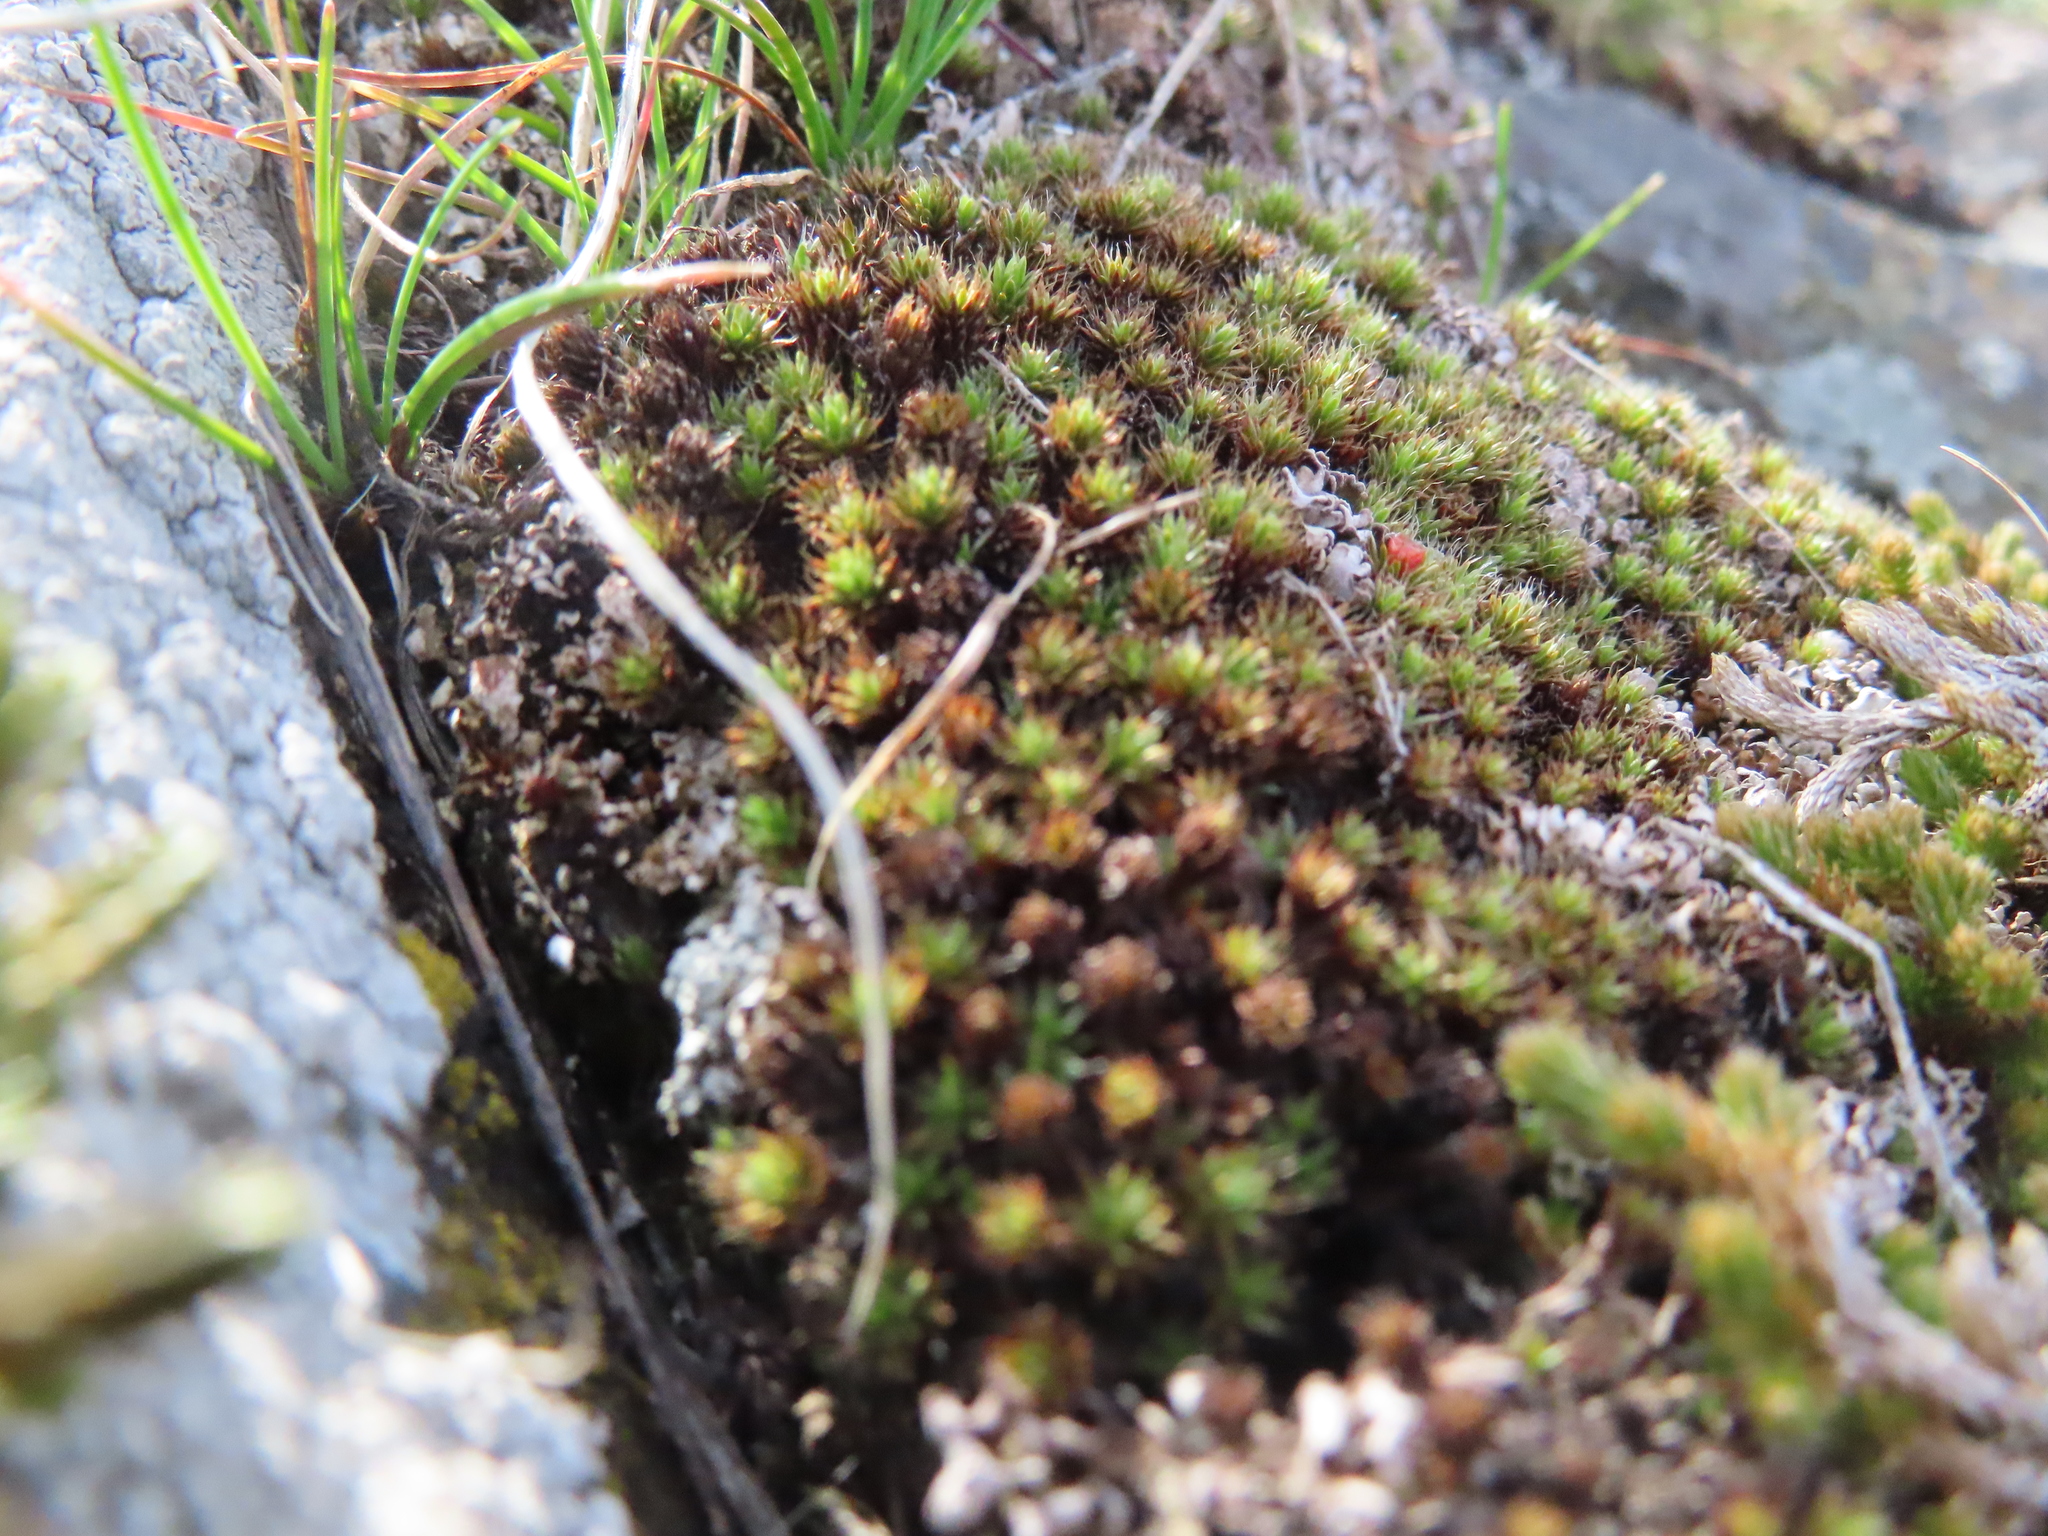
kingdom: Plantae
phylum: Bryophyta
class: Polytrichopsida
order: Polytrichales
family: Polytrichaceae
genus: Polytrichum
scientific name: Polytrichum piliferum
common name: Bristly haircap
